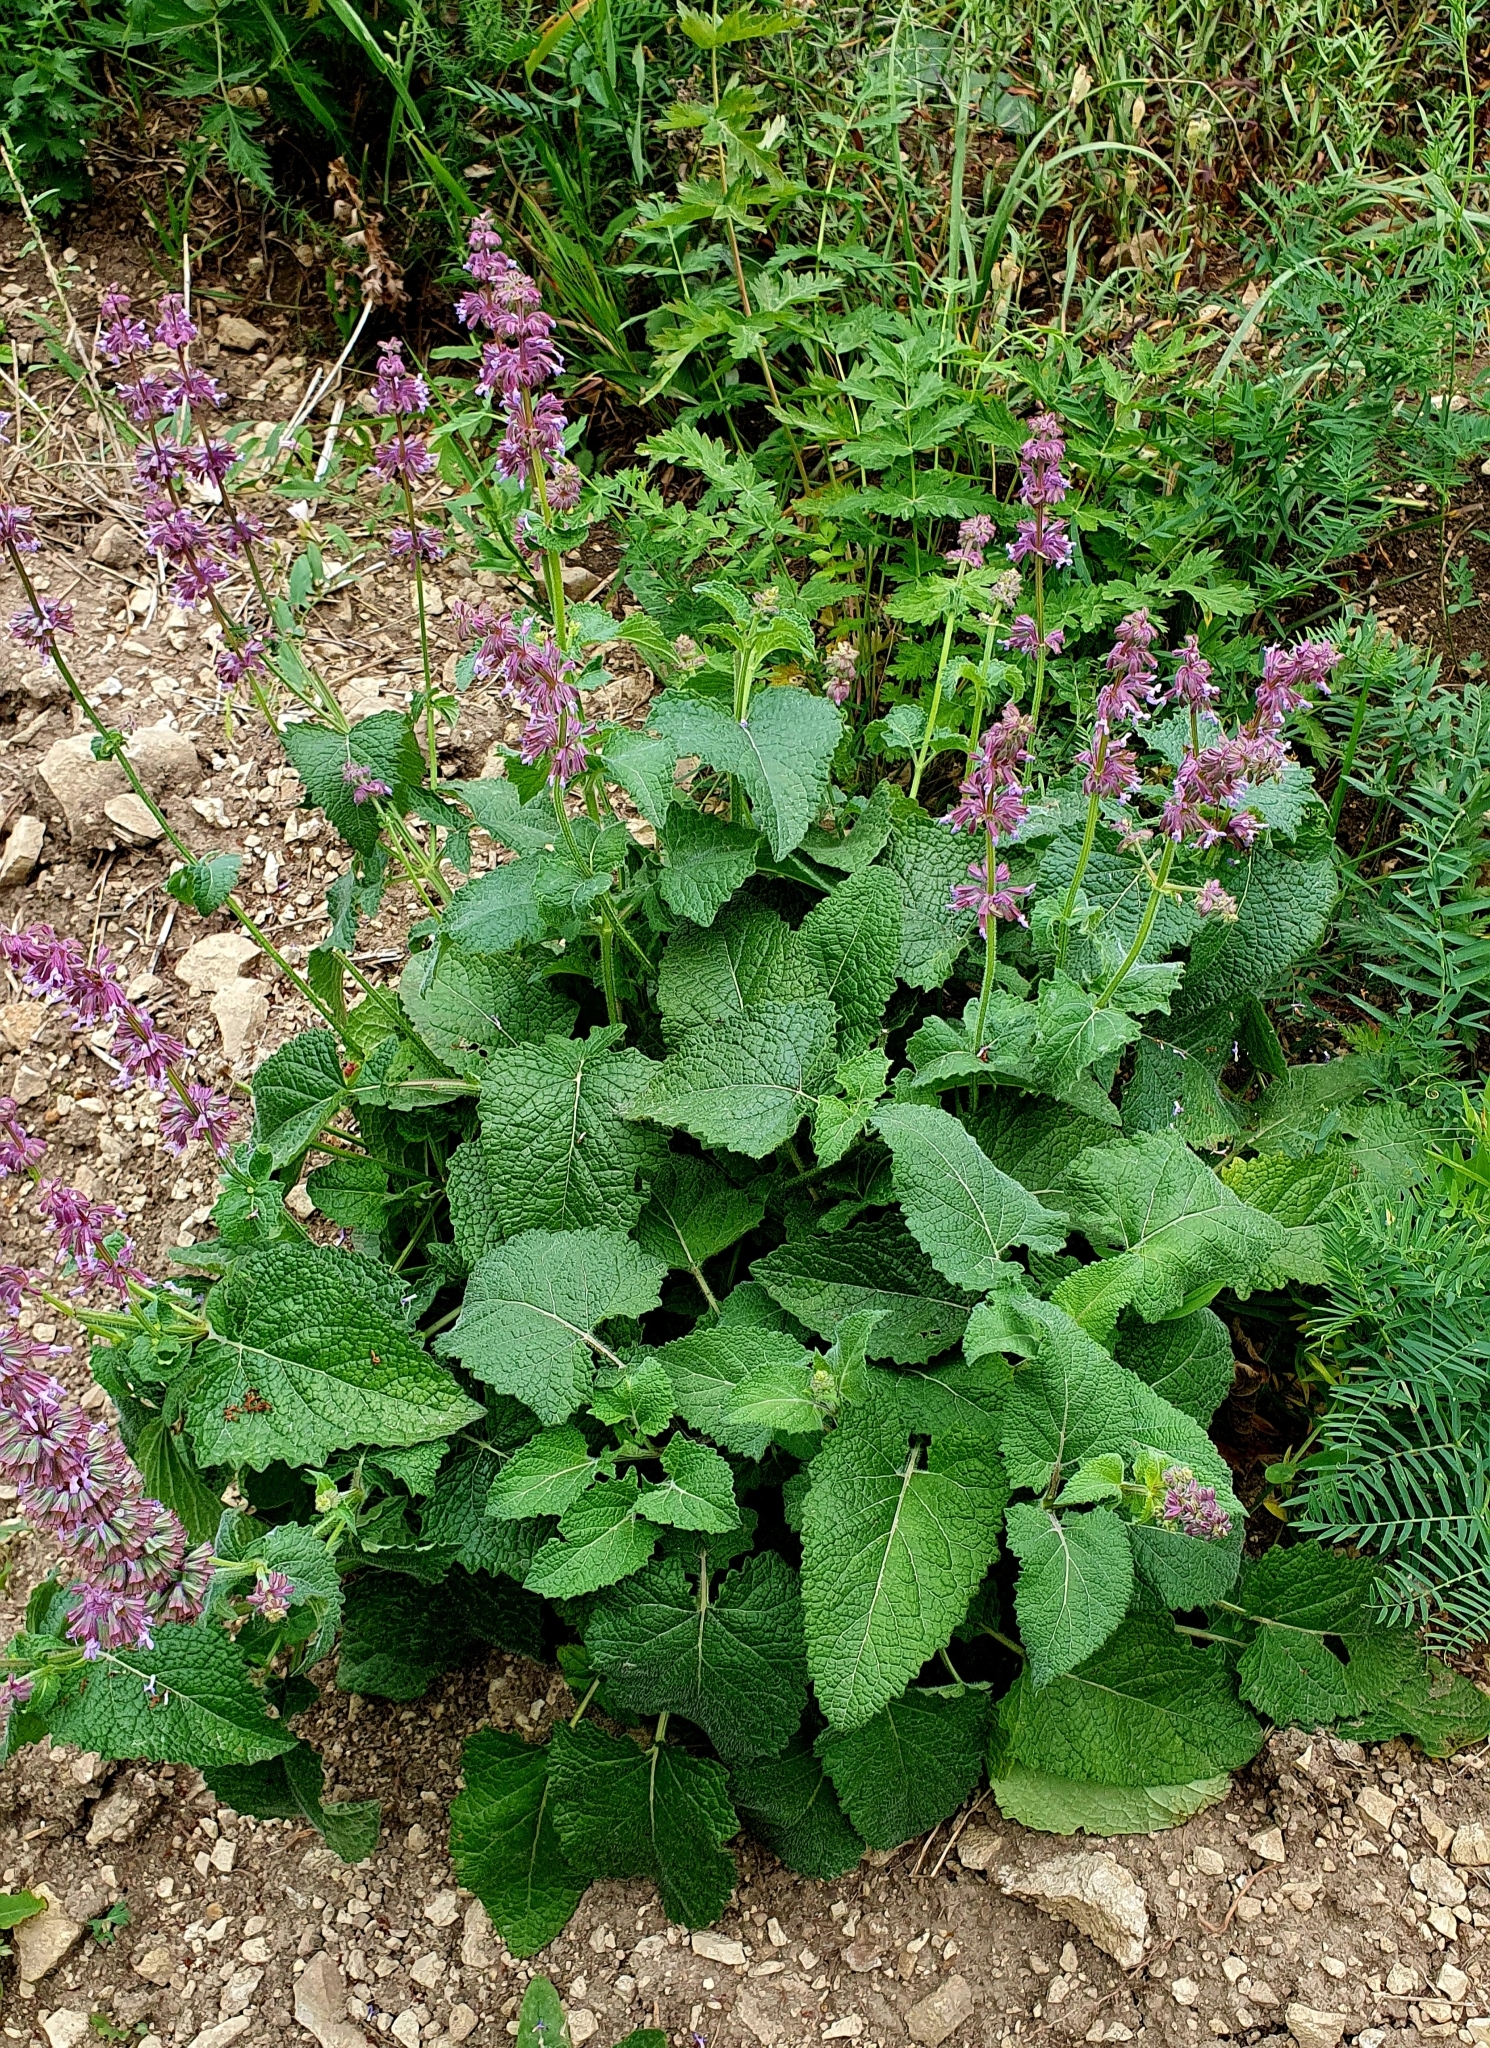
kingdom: Plantae
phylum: Tracheophyta
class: Magnoliopsida
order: Lamiales
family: Lamiaceae
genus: Salvia
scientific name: Salvia verticillata
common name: Whorled clary
